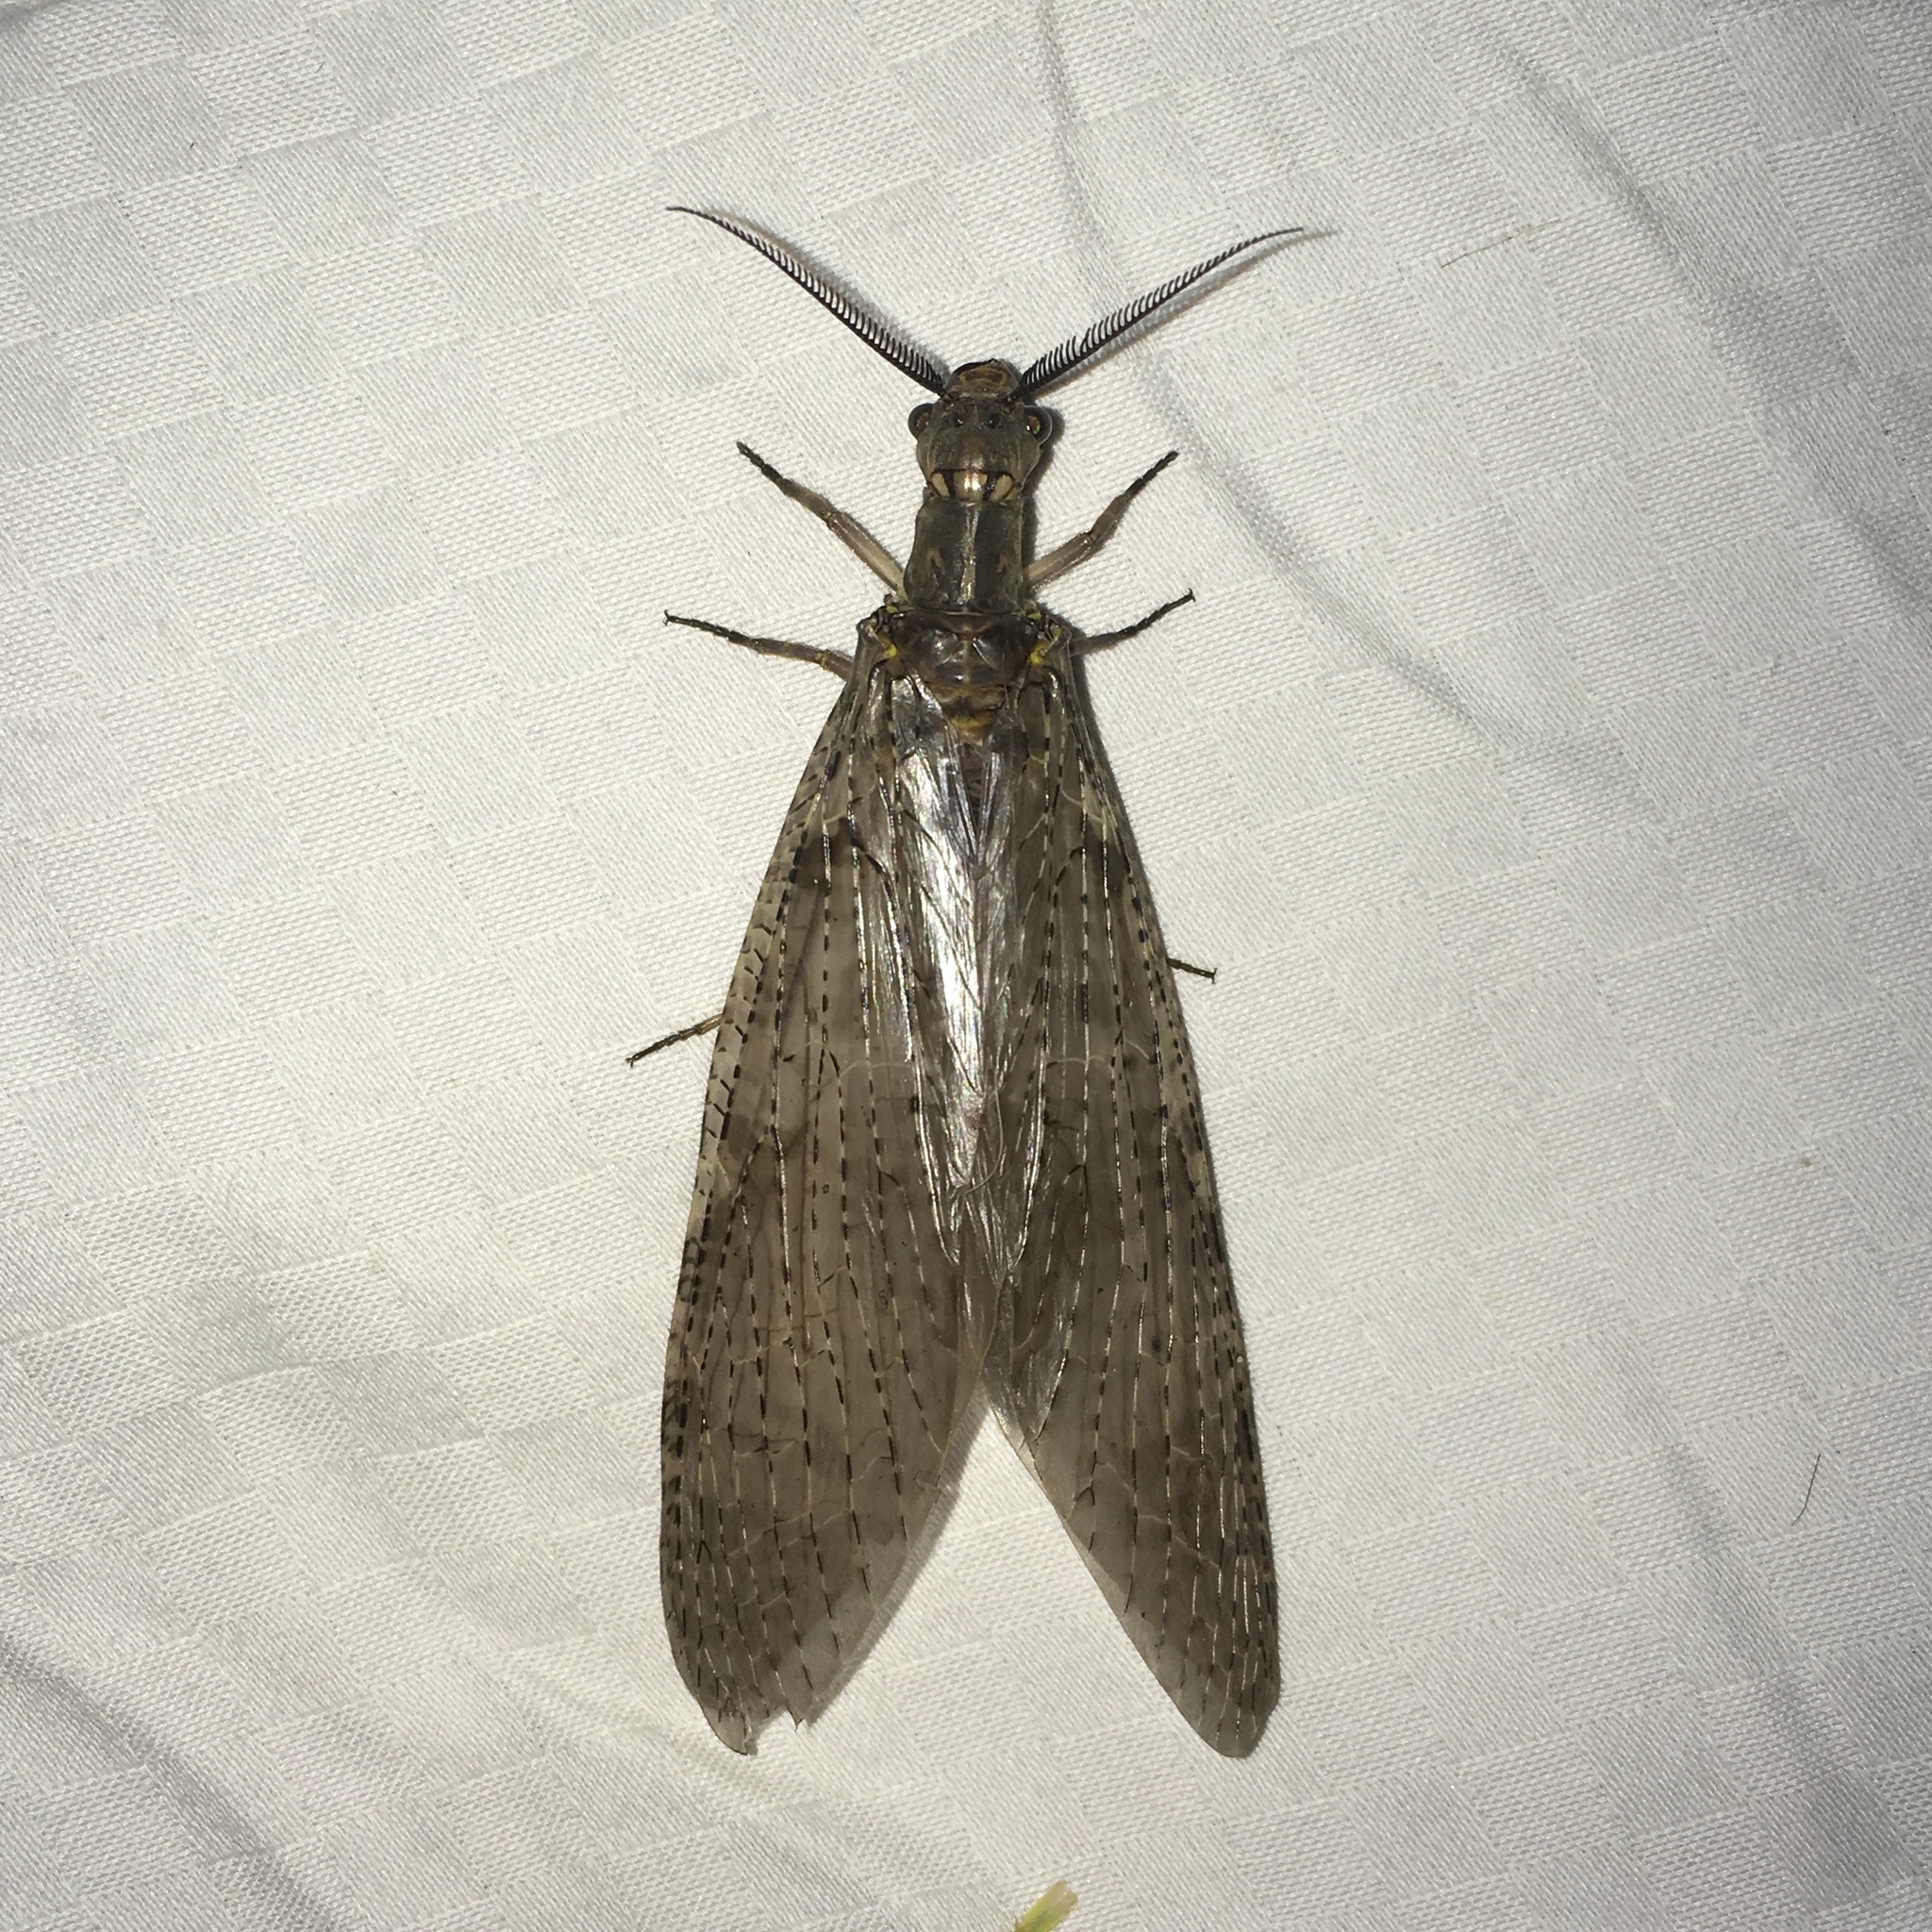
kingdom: Animalia
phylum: Arthropoda
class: Insecta
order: Megaloptera
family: Corydalidae
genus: Chauliodes
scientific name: Chauliodes pectinicornis
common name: Summer fishfly
